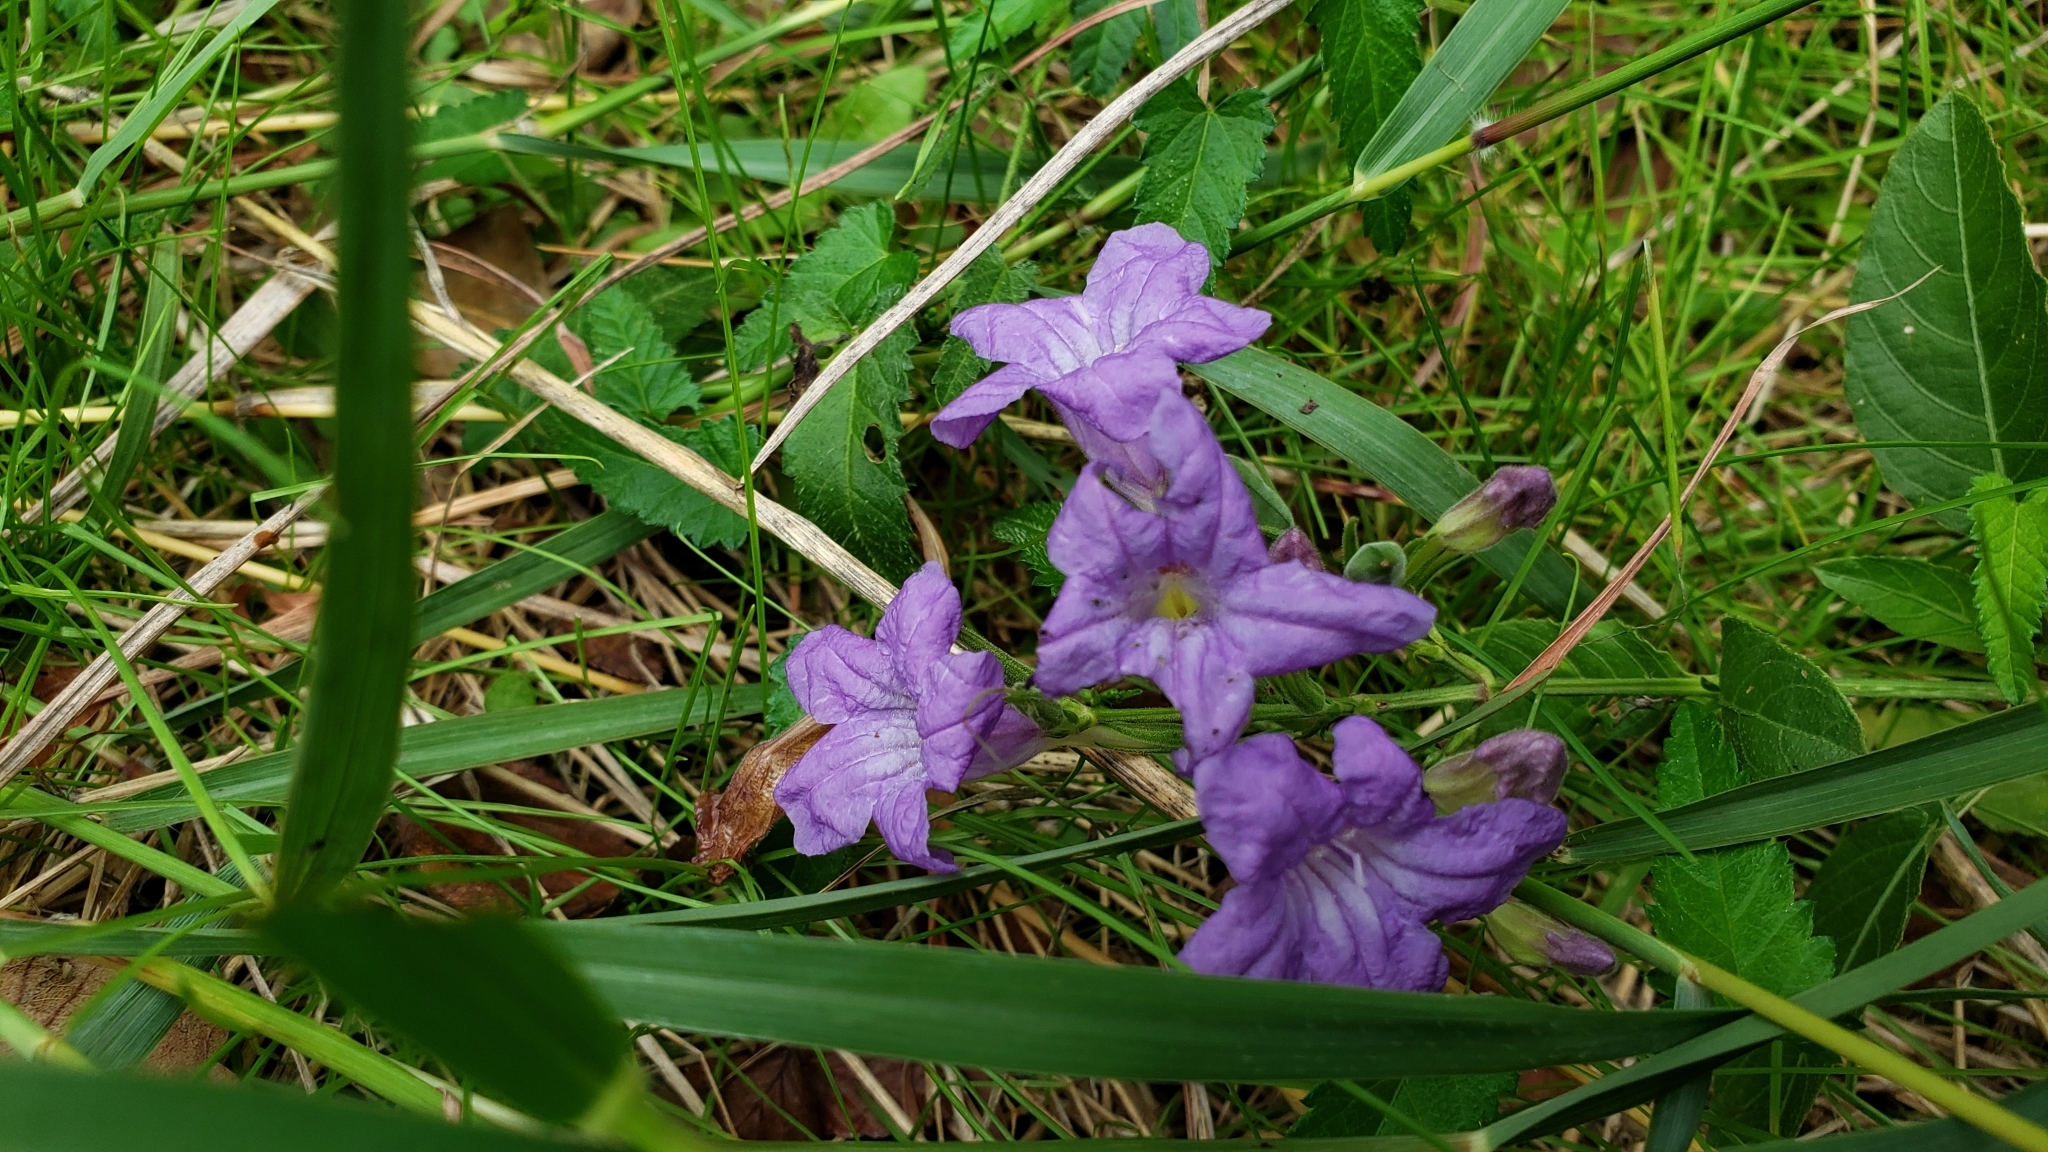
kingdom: Plantae
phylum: Tracheophyta
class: Magnoliopsida
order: Lamiales
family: Acanthaceae
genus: Ruellia
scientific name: Ruellia ciliatiflora
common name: Hairyflower wild petunia
